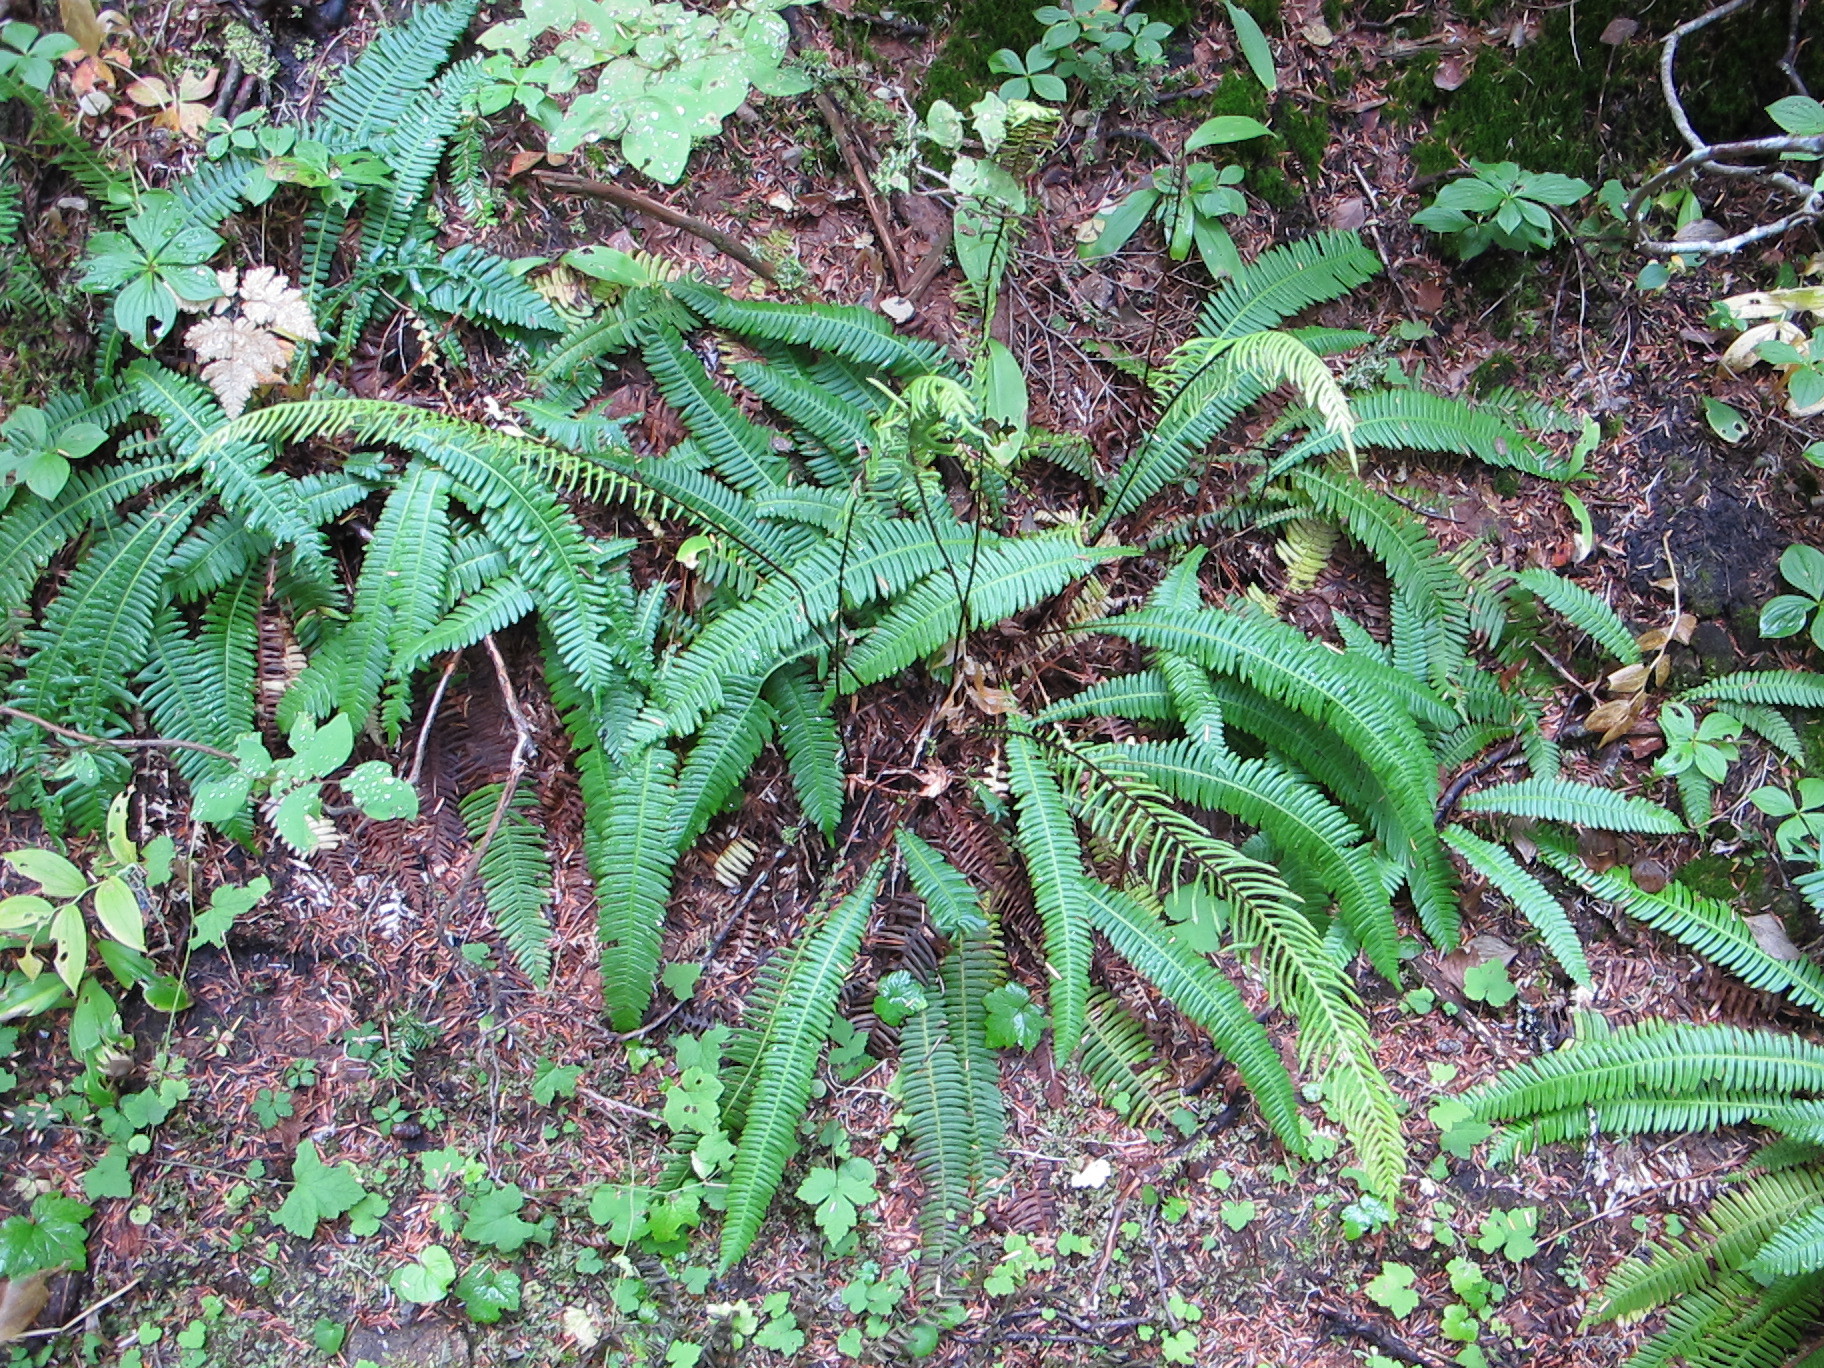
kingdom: Plantae
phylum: Tracheophyta
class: Polypodiopsida
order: Polypodiales
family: Blechnaceae
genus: Struthiopteris
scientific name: Struthiopteris spicant
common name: Deer fern
